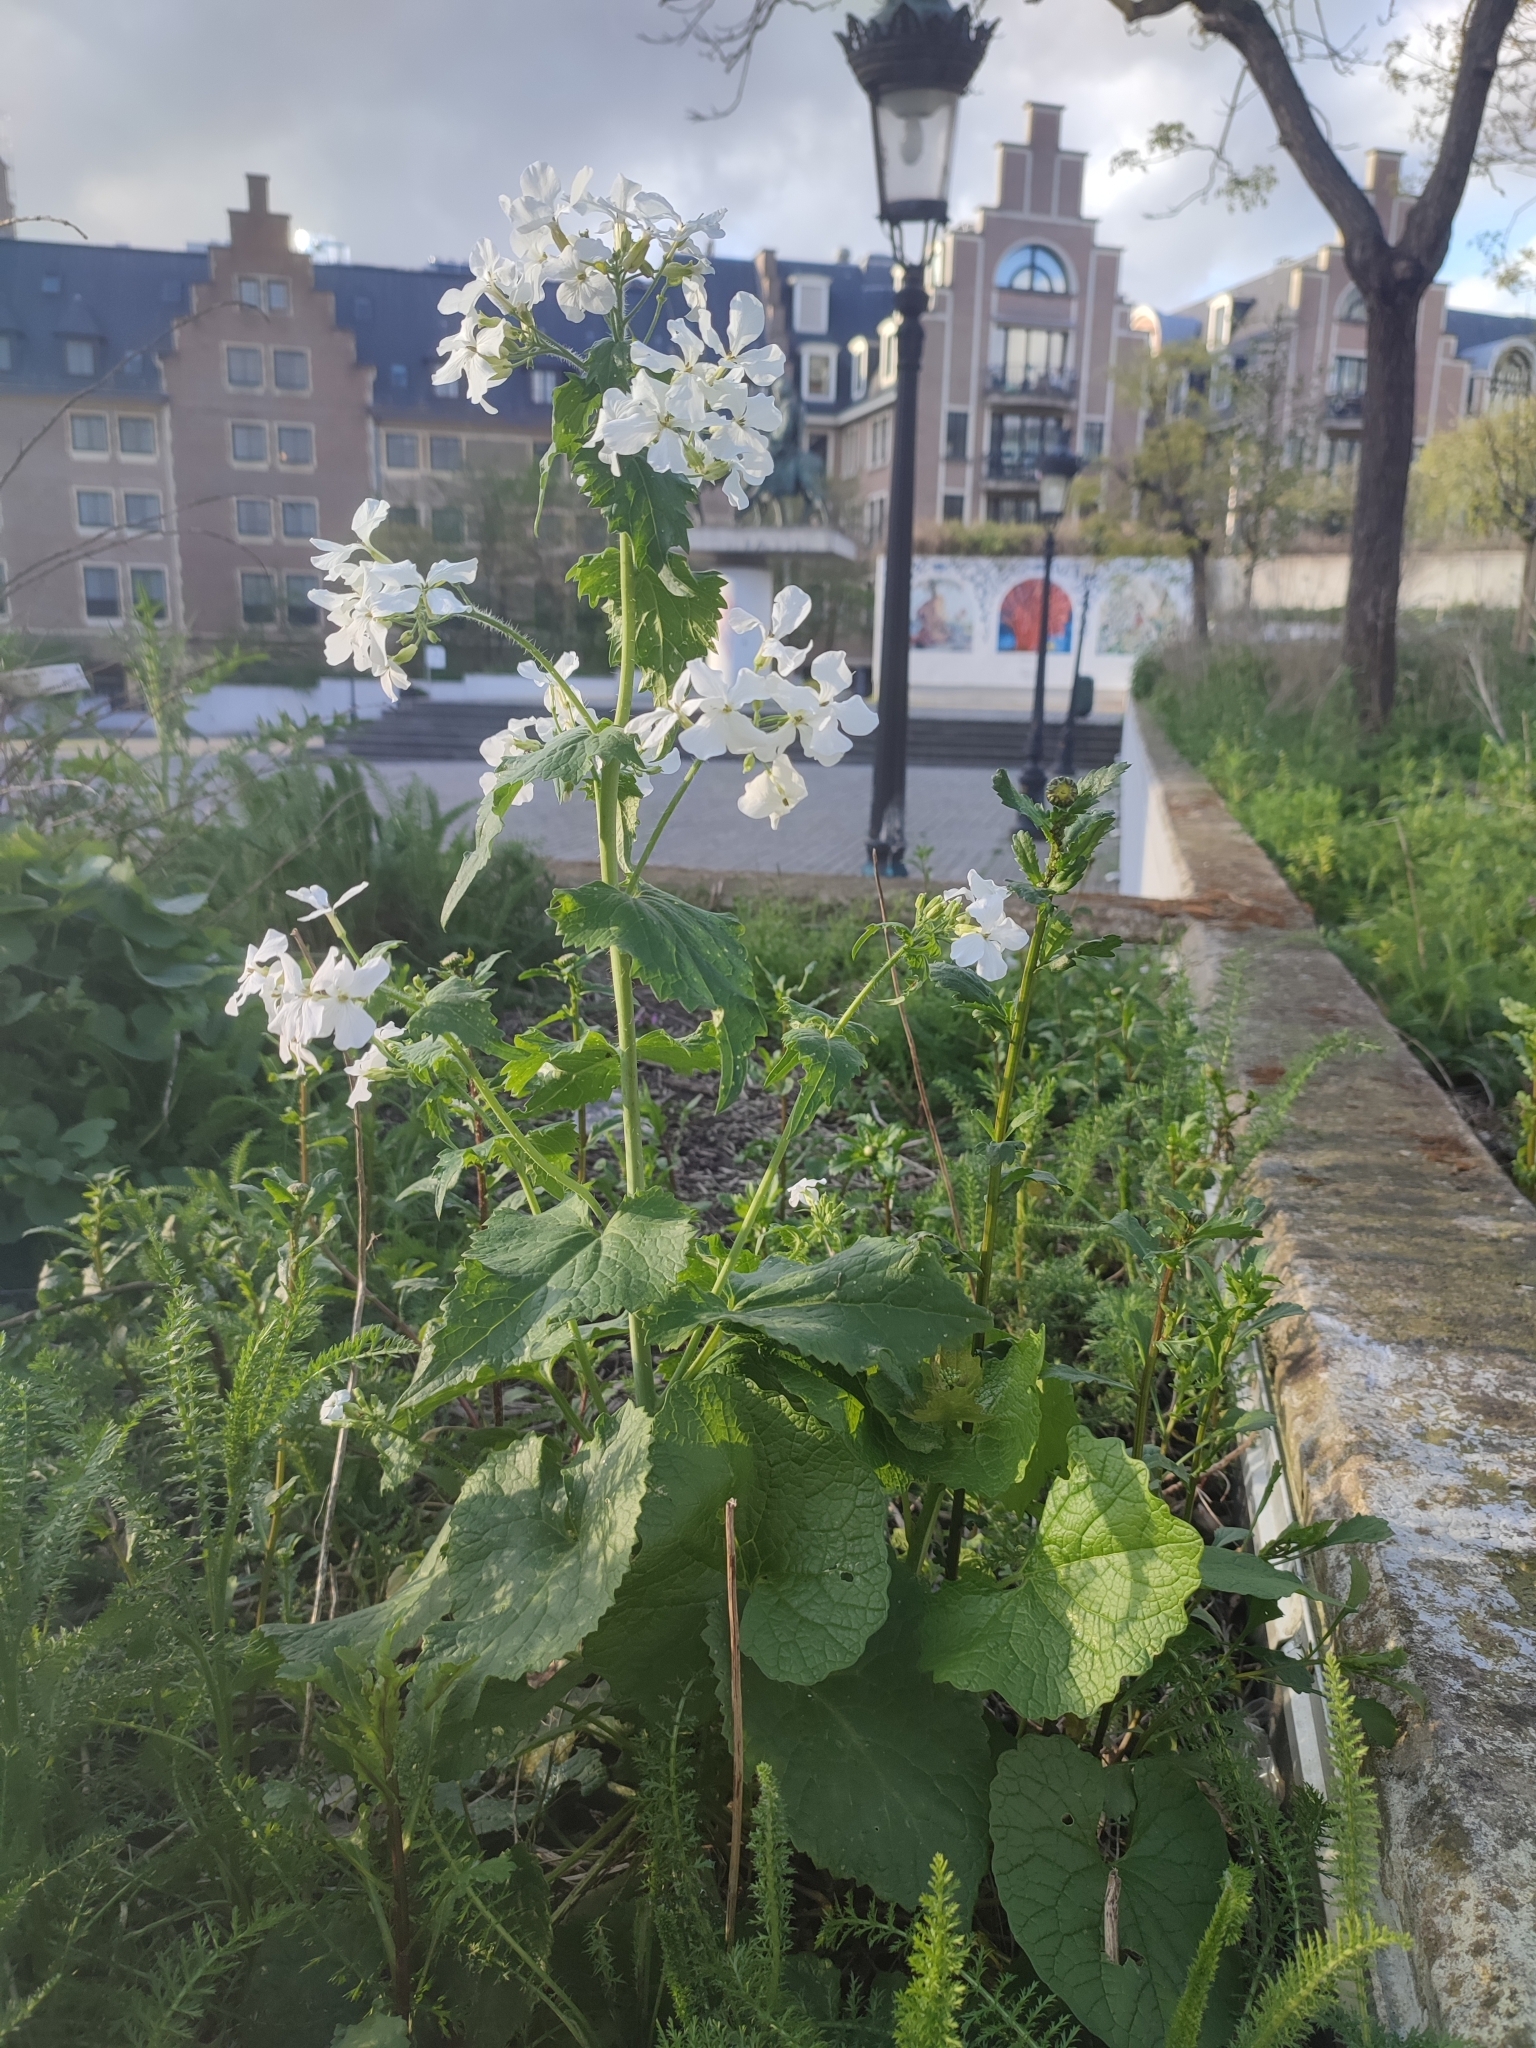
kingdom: Plantae
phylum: Tracheophyta
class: Magnoliopsida
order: Brassicales
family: Brassicaceae
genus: Lunaria
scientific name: Lunaria annua
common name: Honesty
